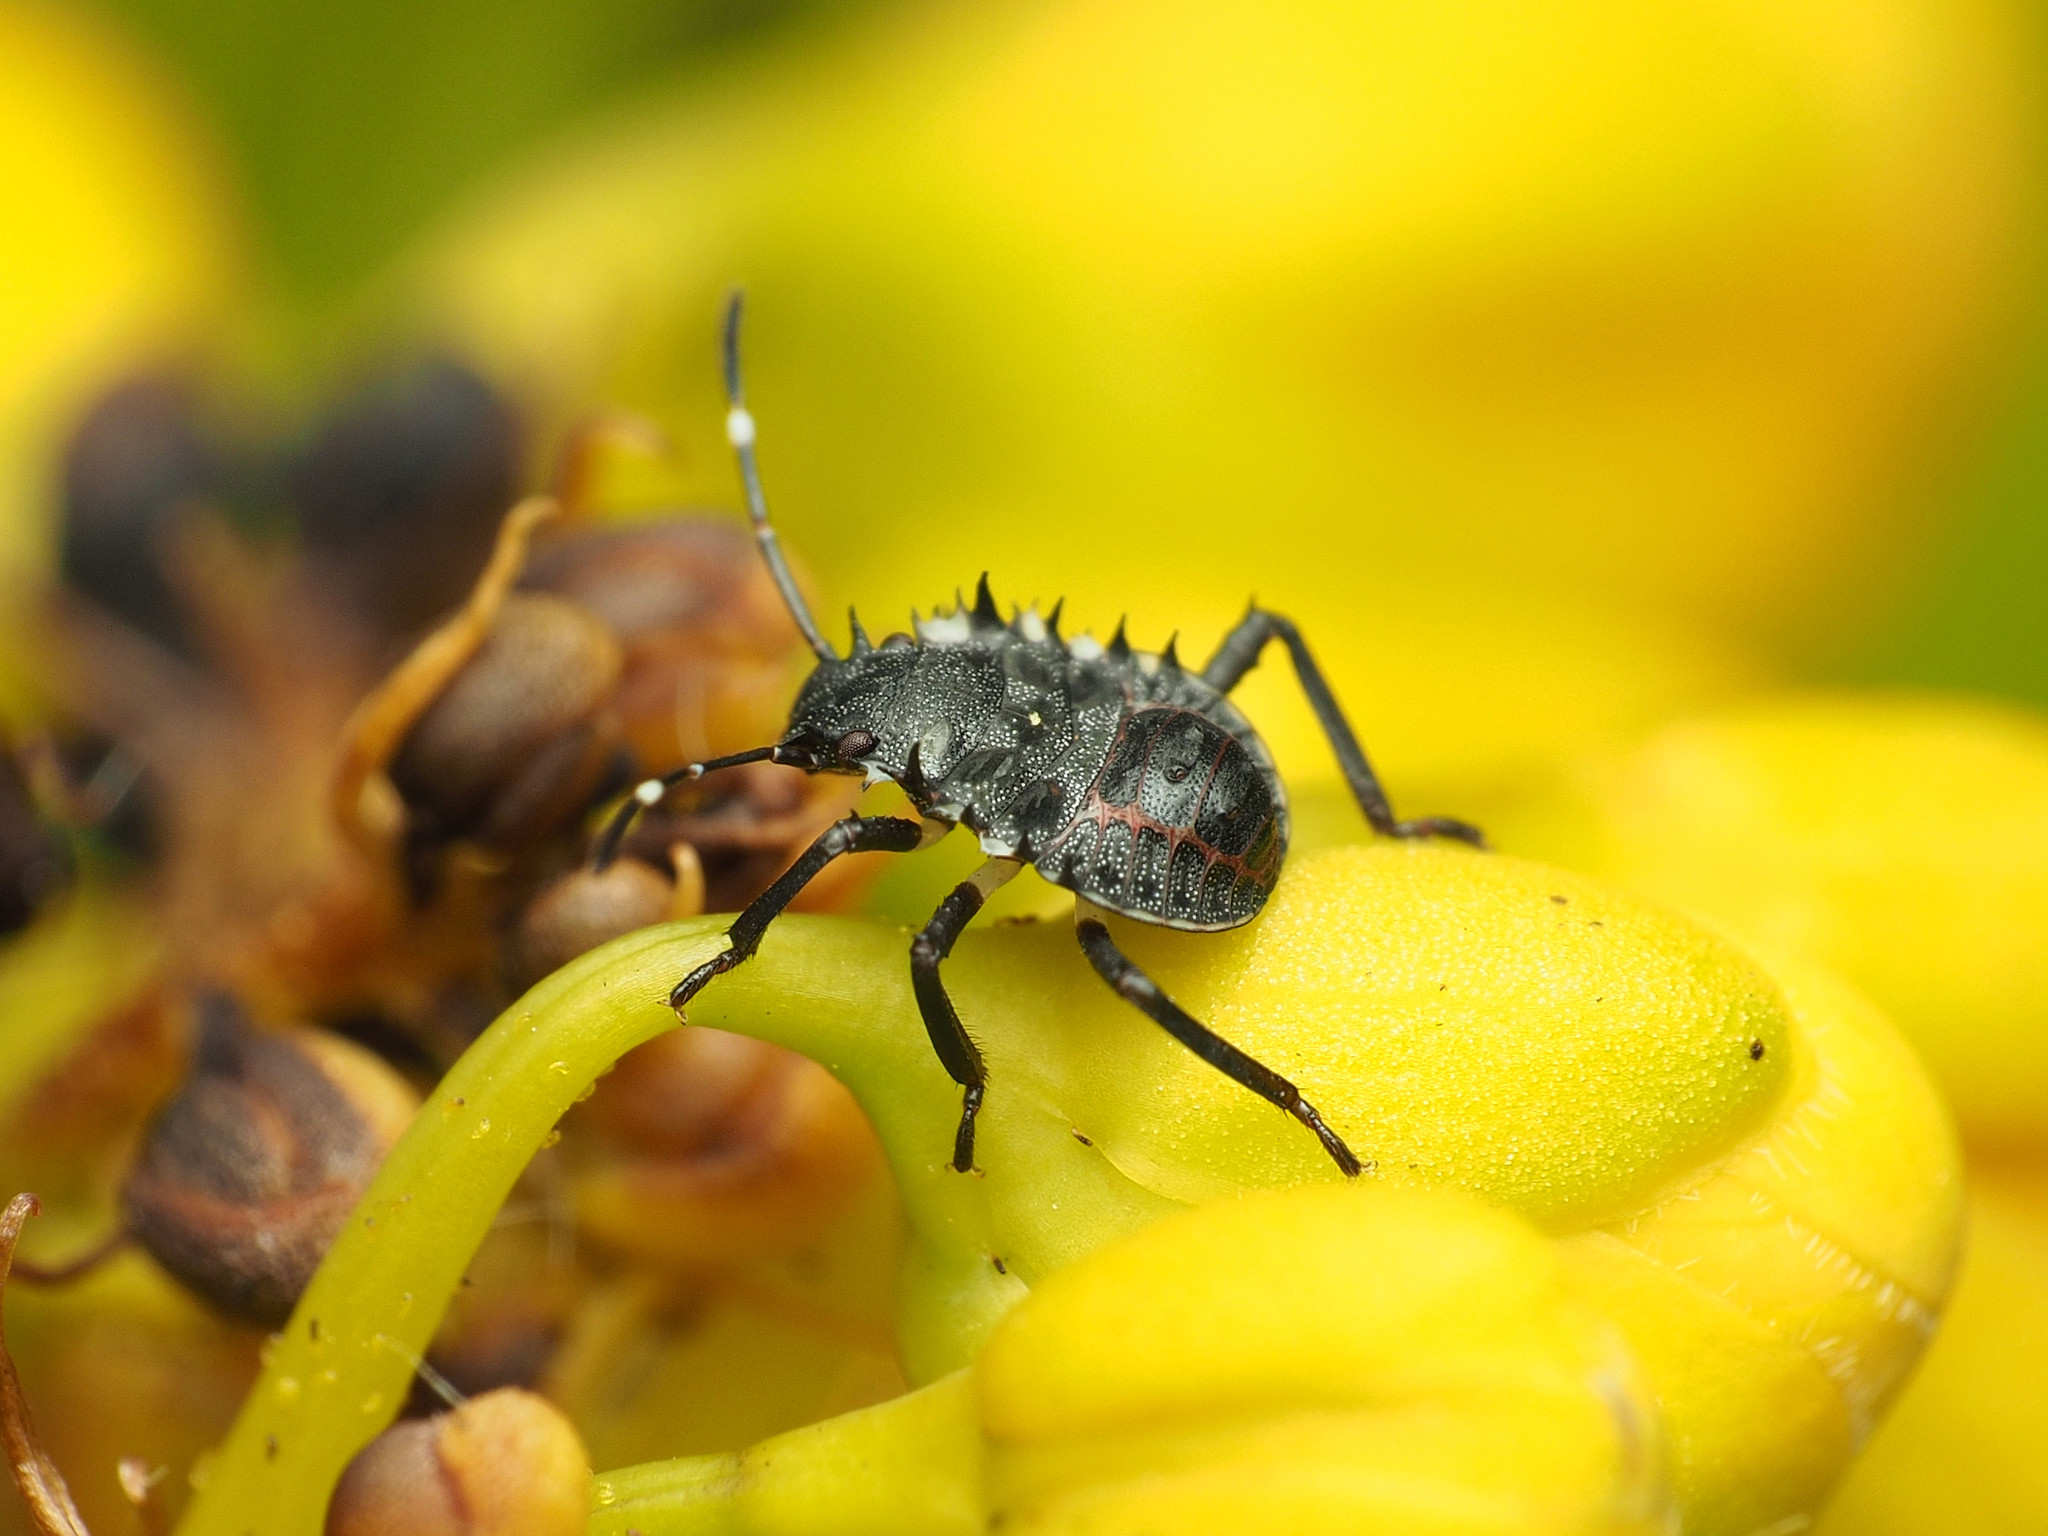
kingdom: Animalia
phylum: Arthropoda
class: Insecta
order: Hemiptera
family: Pentatomidae
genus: Halyomorpha
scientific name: Halyomorpha halys
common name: Brown marmorated stink bug
